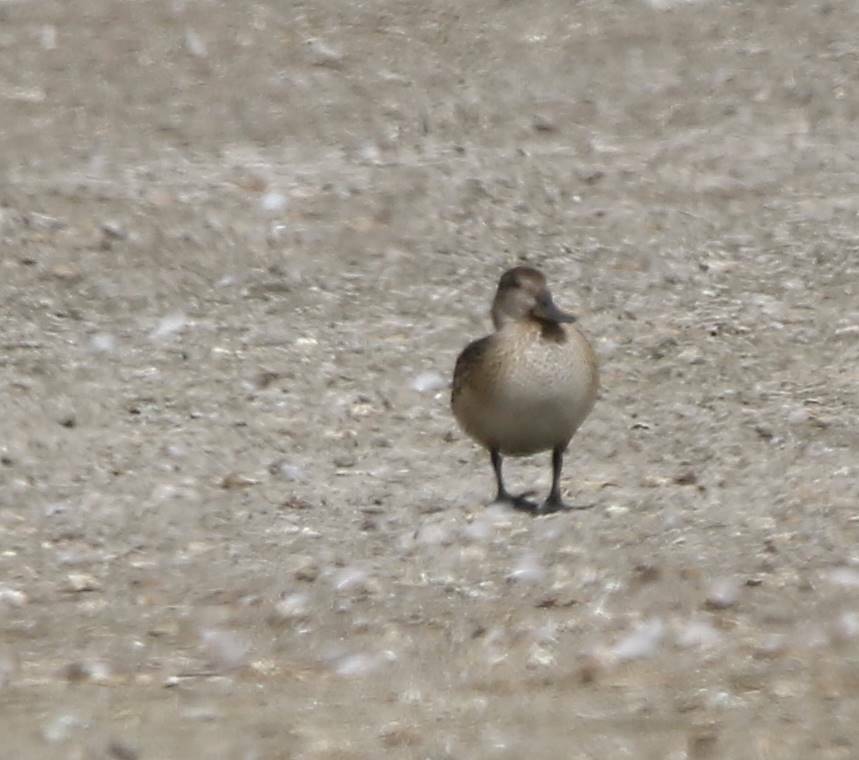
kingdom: Animalia
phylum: Chordata
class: Aves
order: Anseriformes
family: Anatidae
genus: Anas
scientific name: Anas crecca
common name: Eurasian teal
